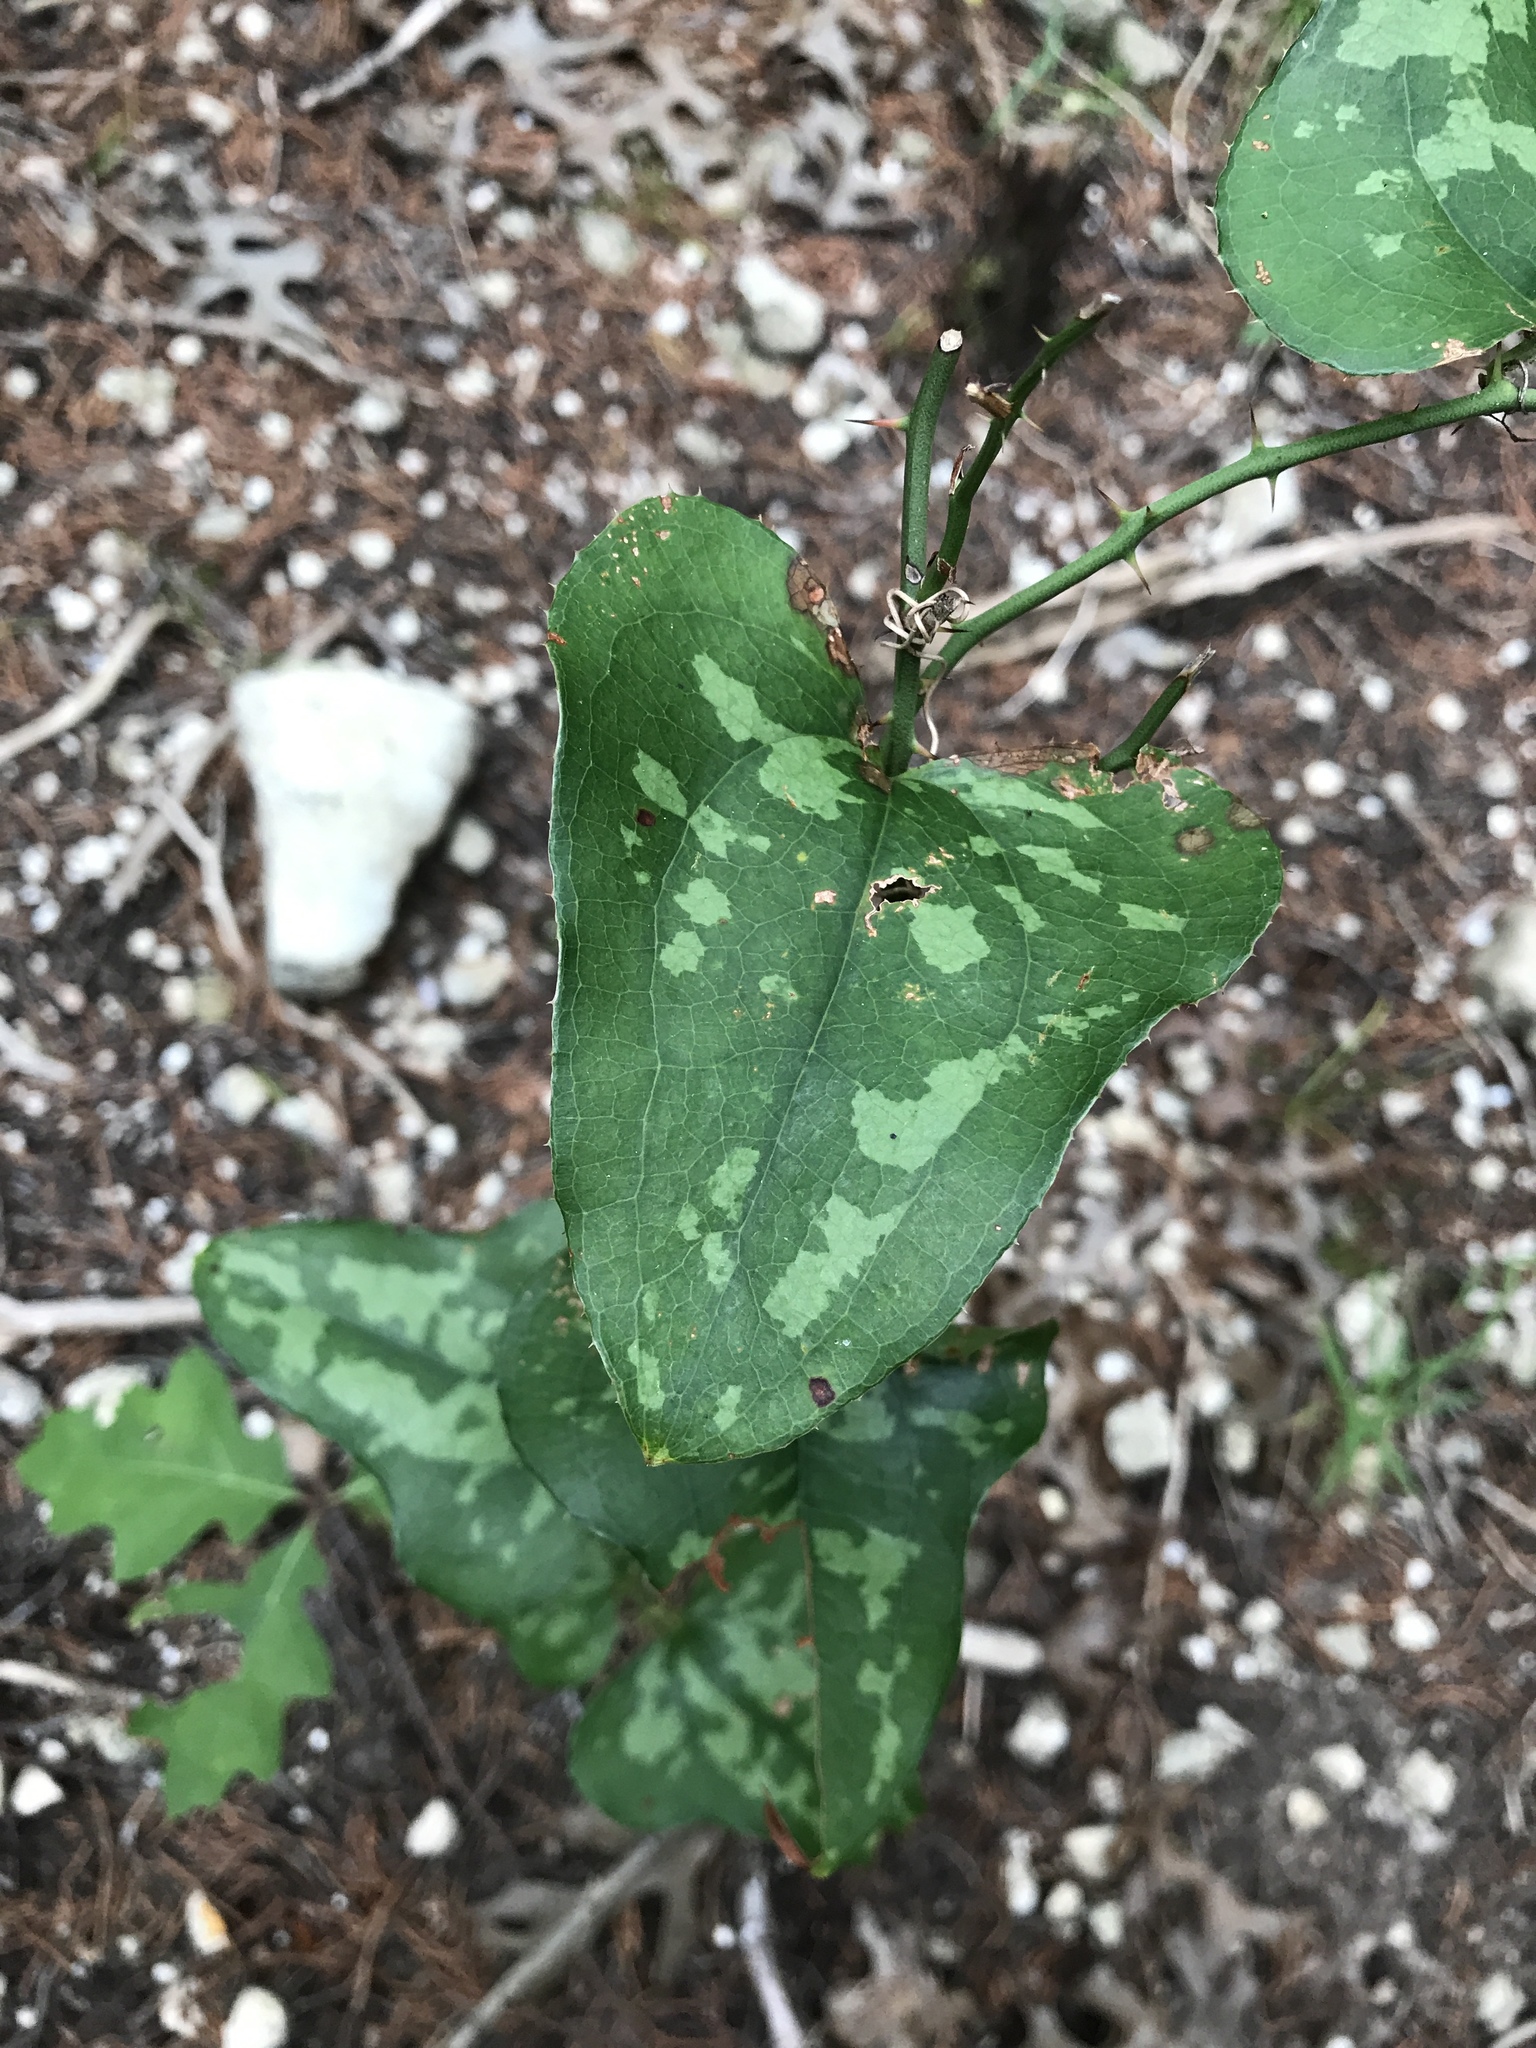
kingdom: Plantae
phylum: Tracheophyta
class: Liliopsida
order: Liliales
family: Smilacaceae
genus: Smilax
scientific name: Smilax bona-nox
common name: Catbrier
